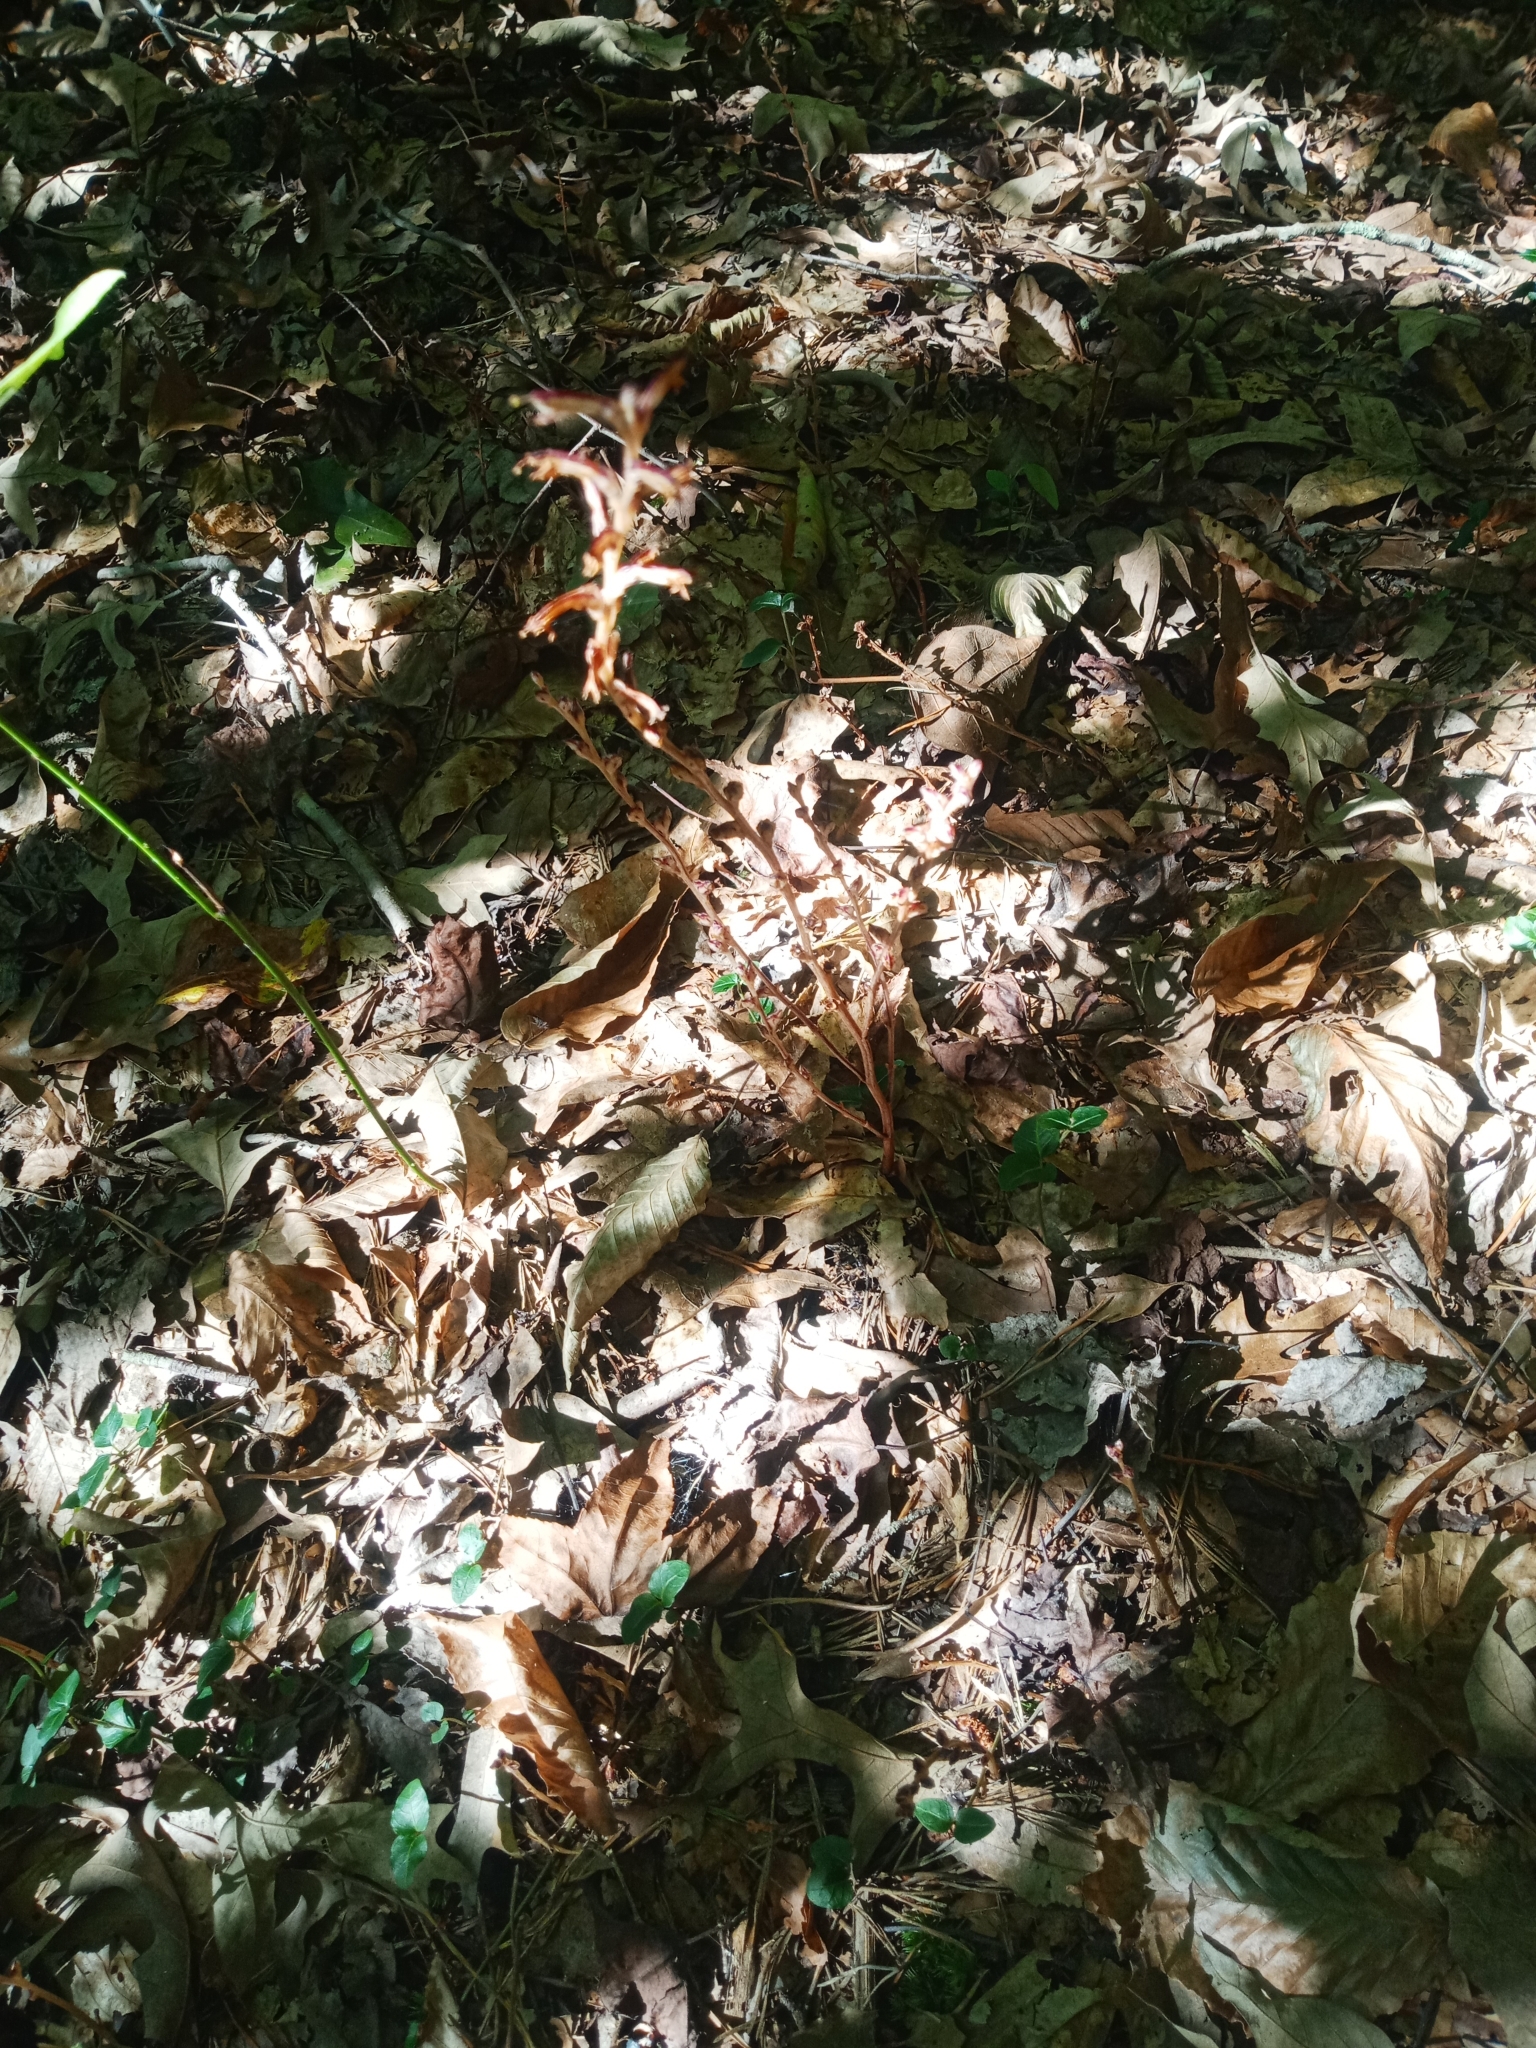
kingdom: Plantae
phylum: Tracheophyta
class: Magnoliopsida
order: Lamiales
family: Orobanchaceae
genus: Epifagus
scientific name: Epifagus virginiana
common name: Beechdrops
